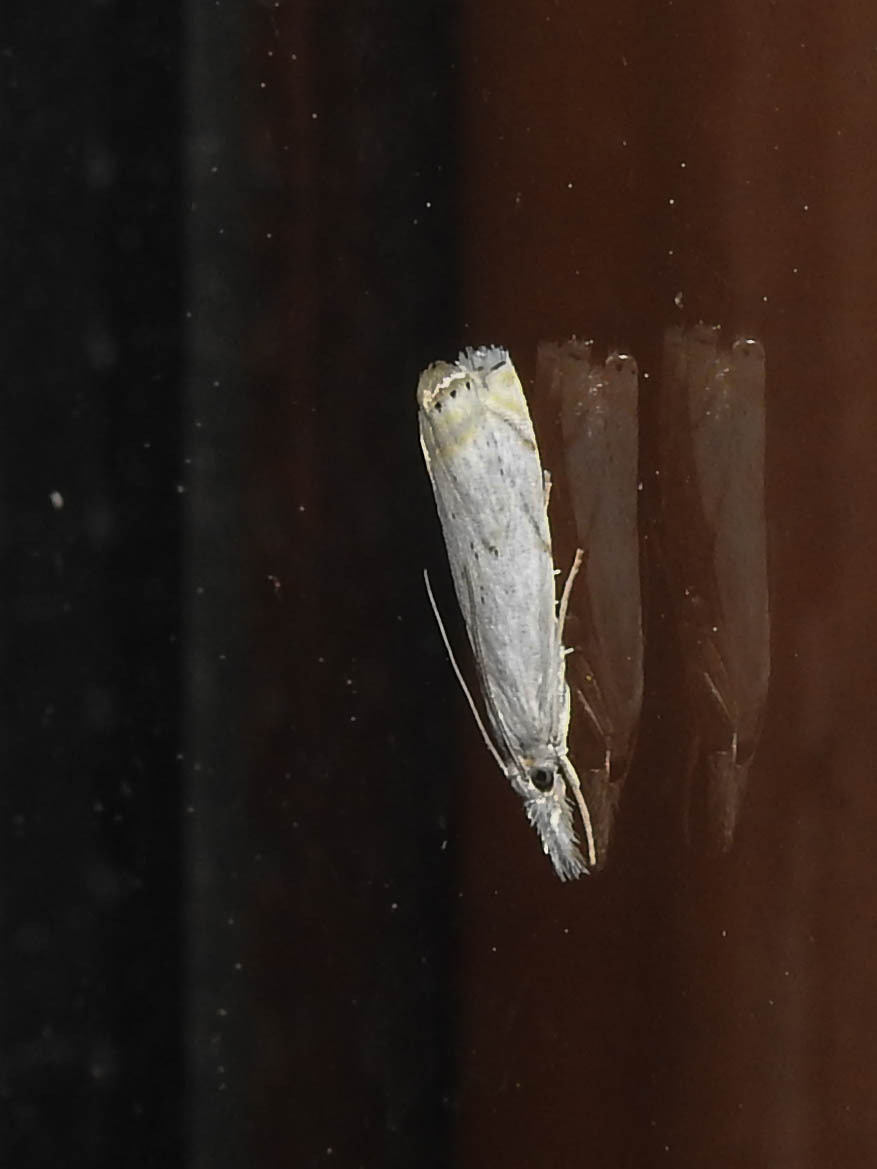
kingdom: Animalia
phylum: Arthropoda
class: Insecta
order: Lepidoptera
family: Crambidae
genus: Crambus
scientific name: Crambus albellus
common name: Small white grass-veneer
